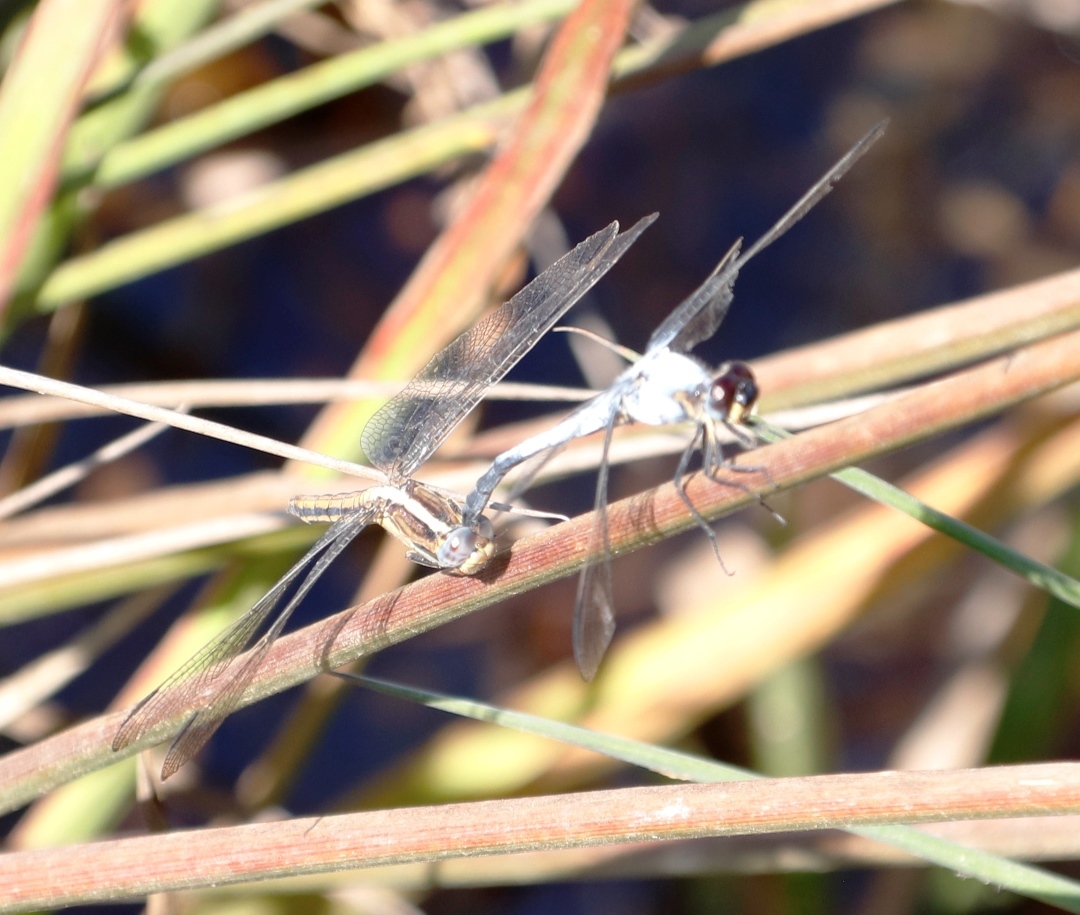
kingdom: Animalia
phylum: Arthropoda
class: Insecta
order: Odonata
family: Libellulidae
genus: Nesciothemis
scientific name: Nesciothemis farinosa
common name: Eastern blacktail
